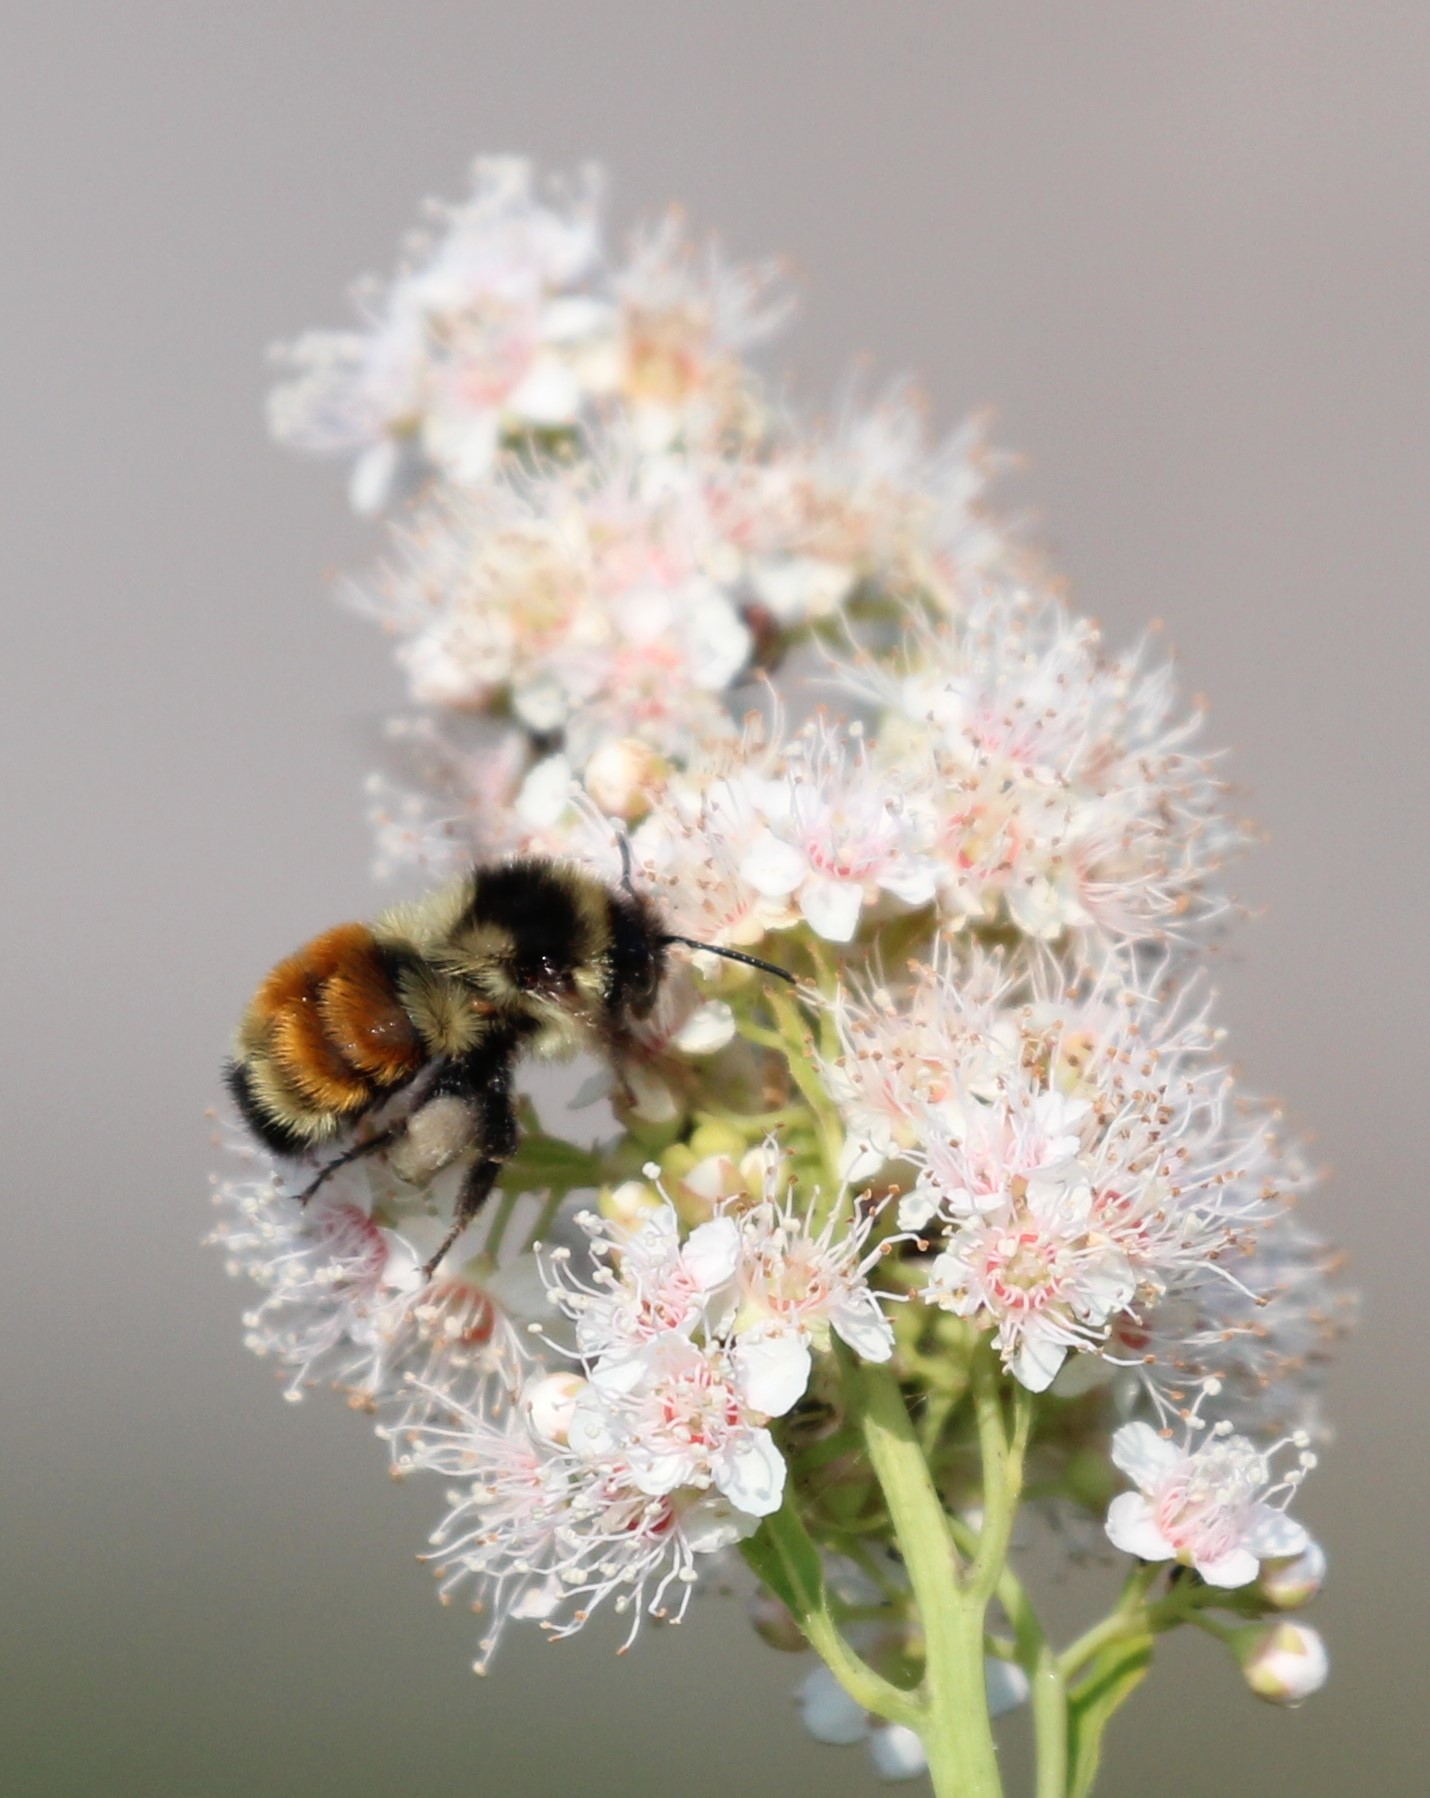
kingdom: Animalia
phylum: Arthropoda
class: Insecta
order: Hymenoptera
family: Apidae
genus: Bombus
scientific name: Bombus ternarius
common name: Tri-colored bumble bee
